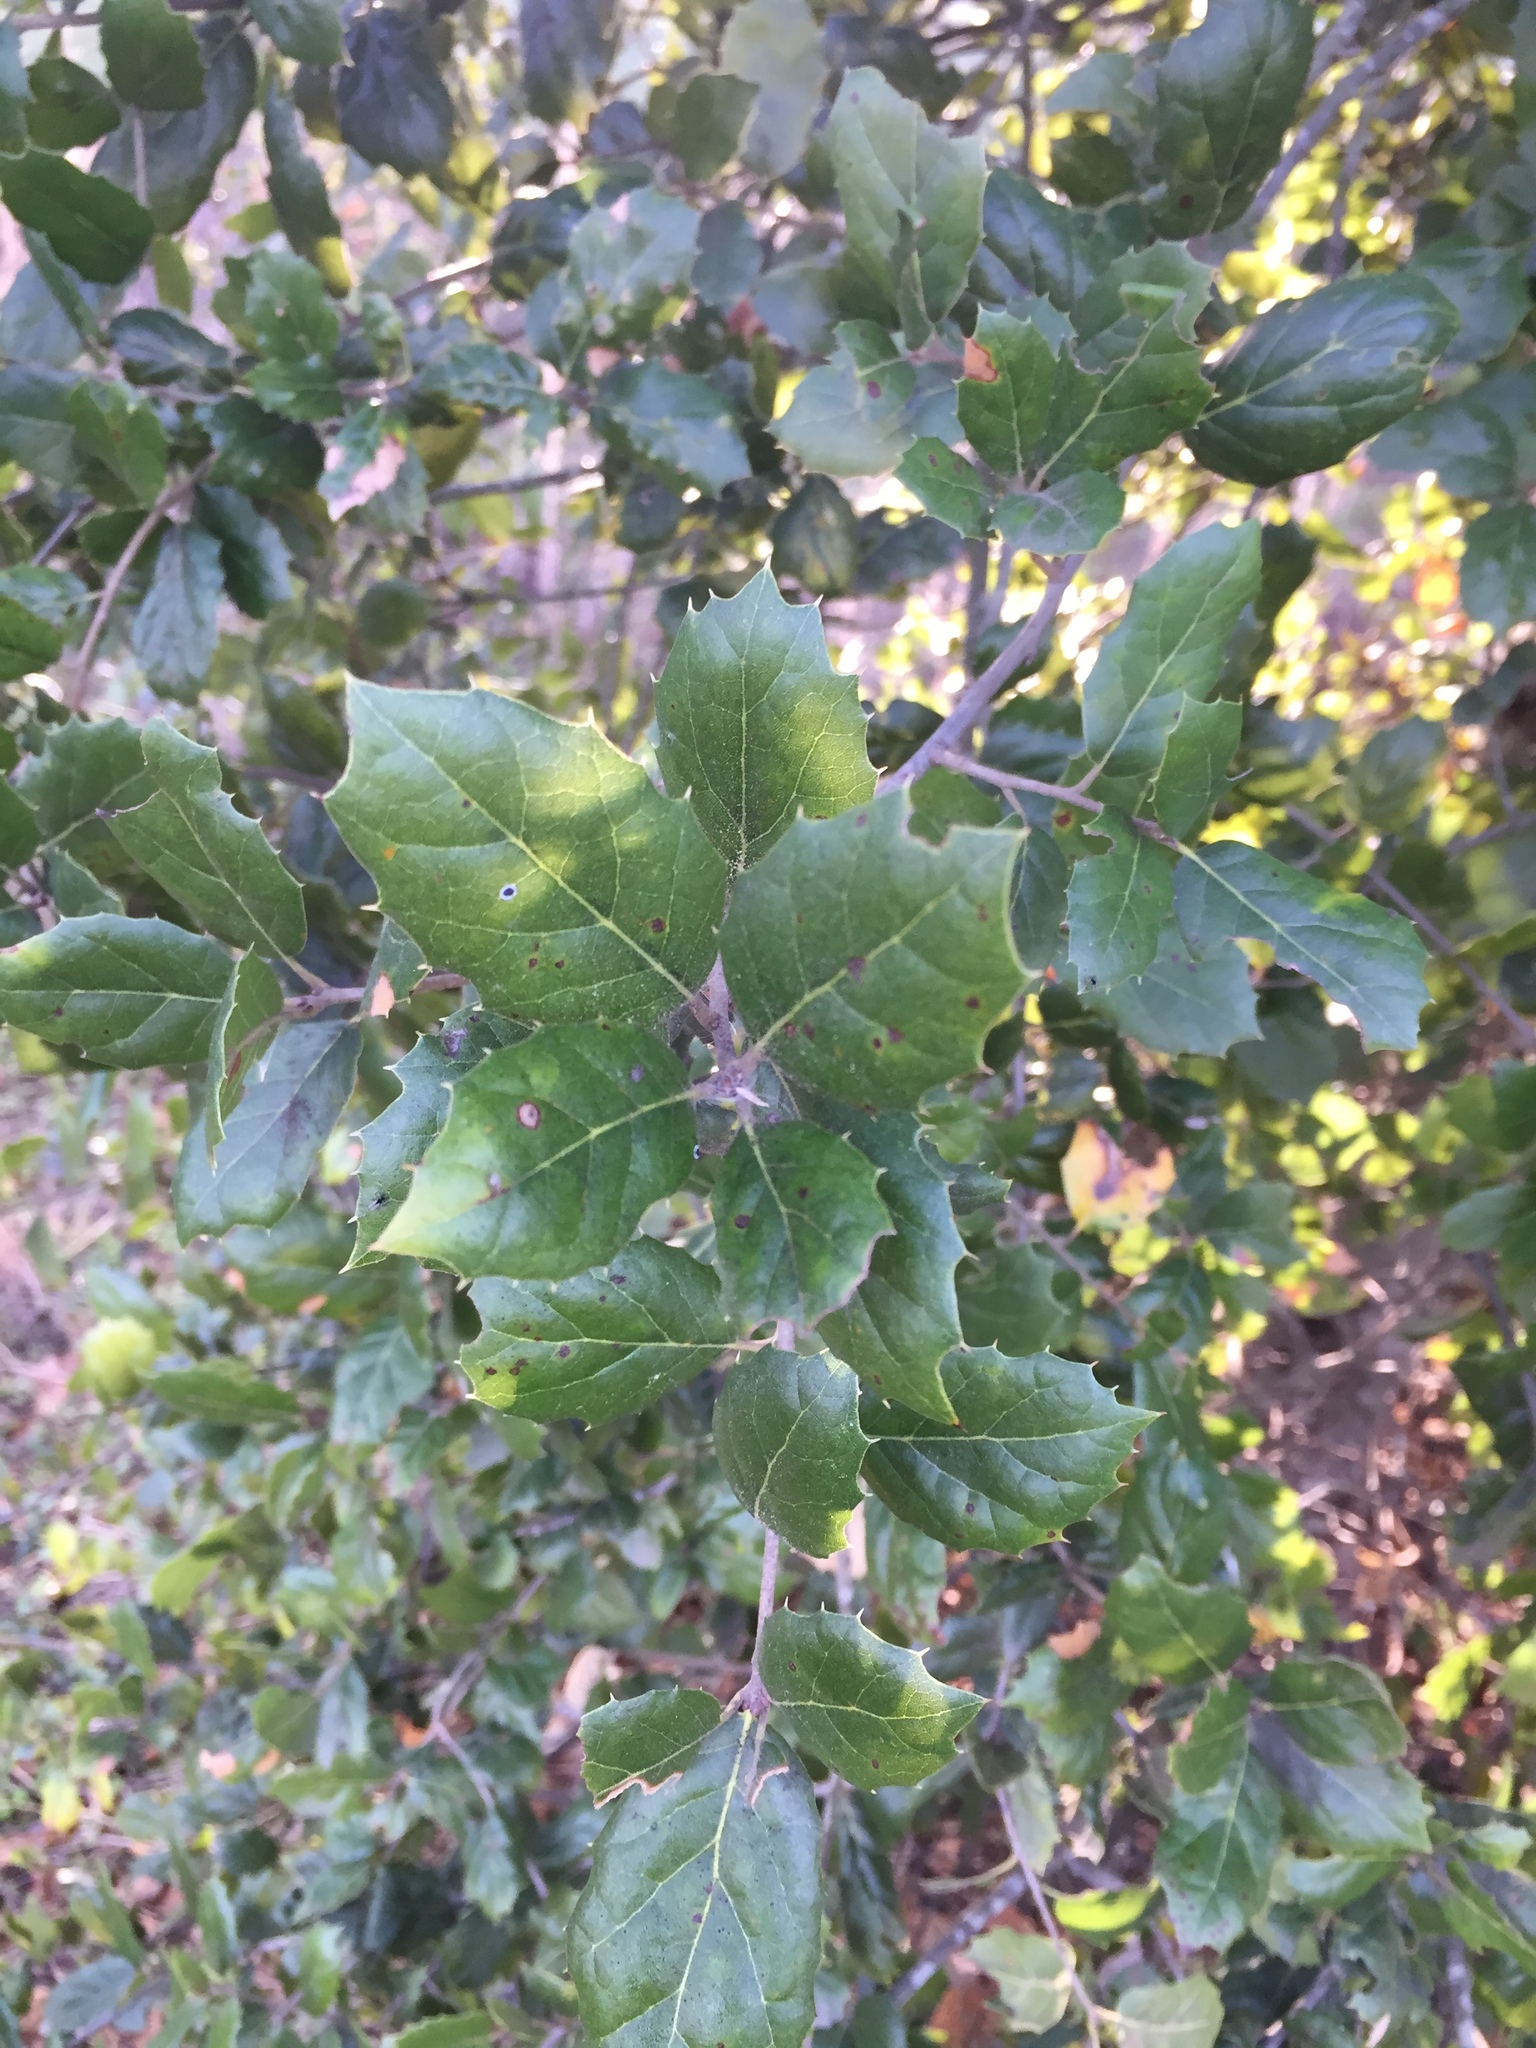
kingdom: Plantae
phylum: Tracheophyta
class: Magnoliopsida
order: Fagales
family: Fagaceae
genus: Quercus
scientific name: Quercus agrifolia
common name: California live oak
